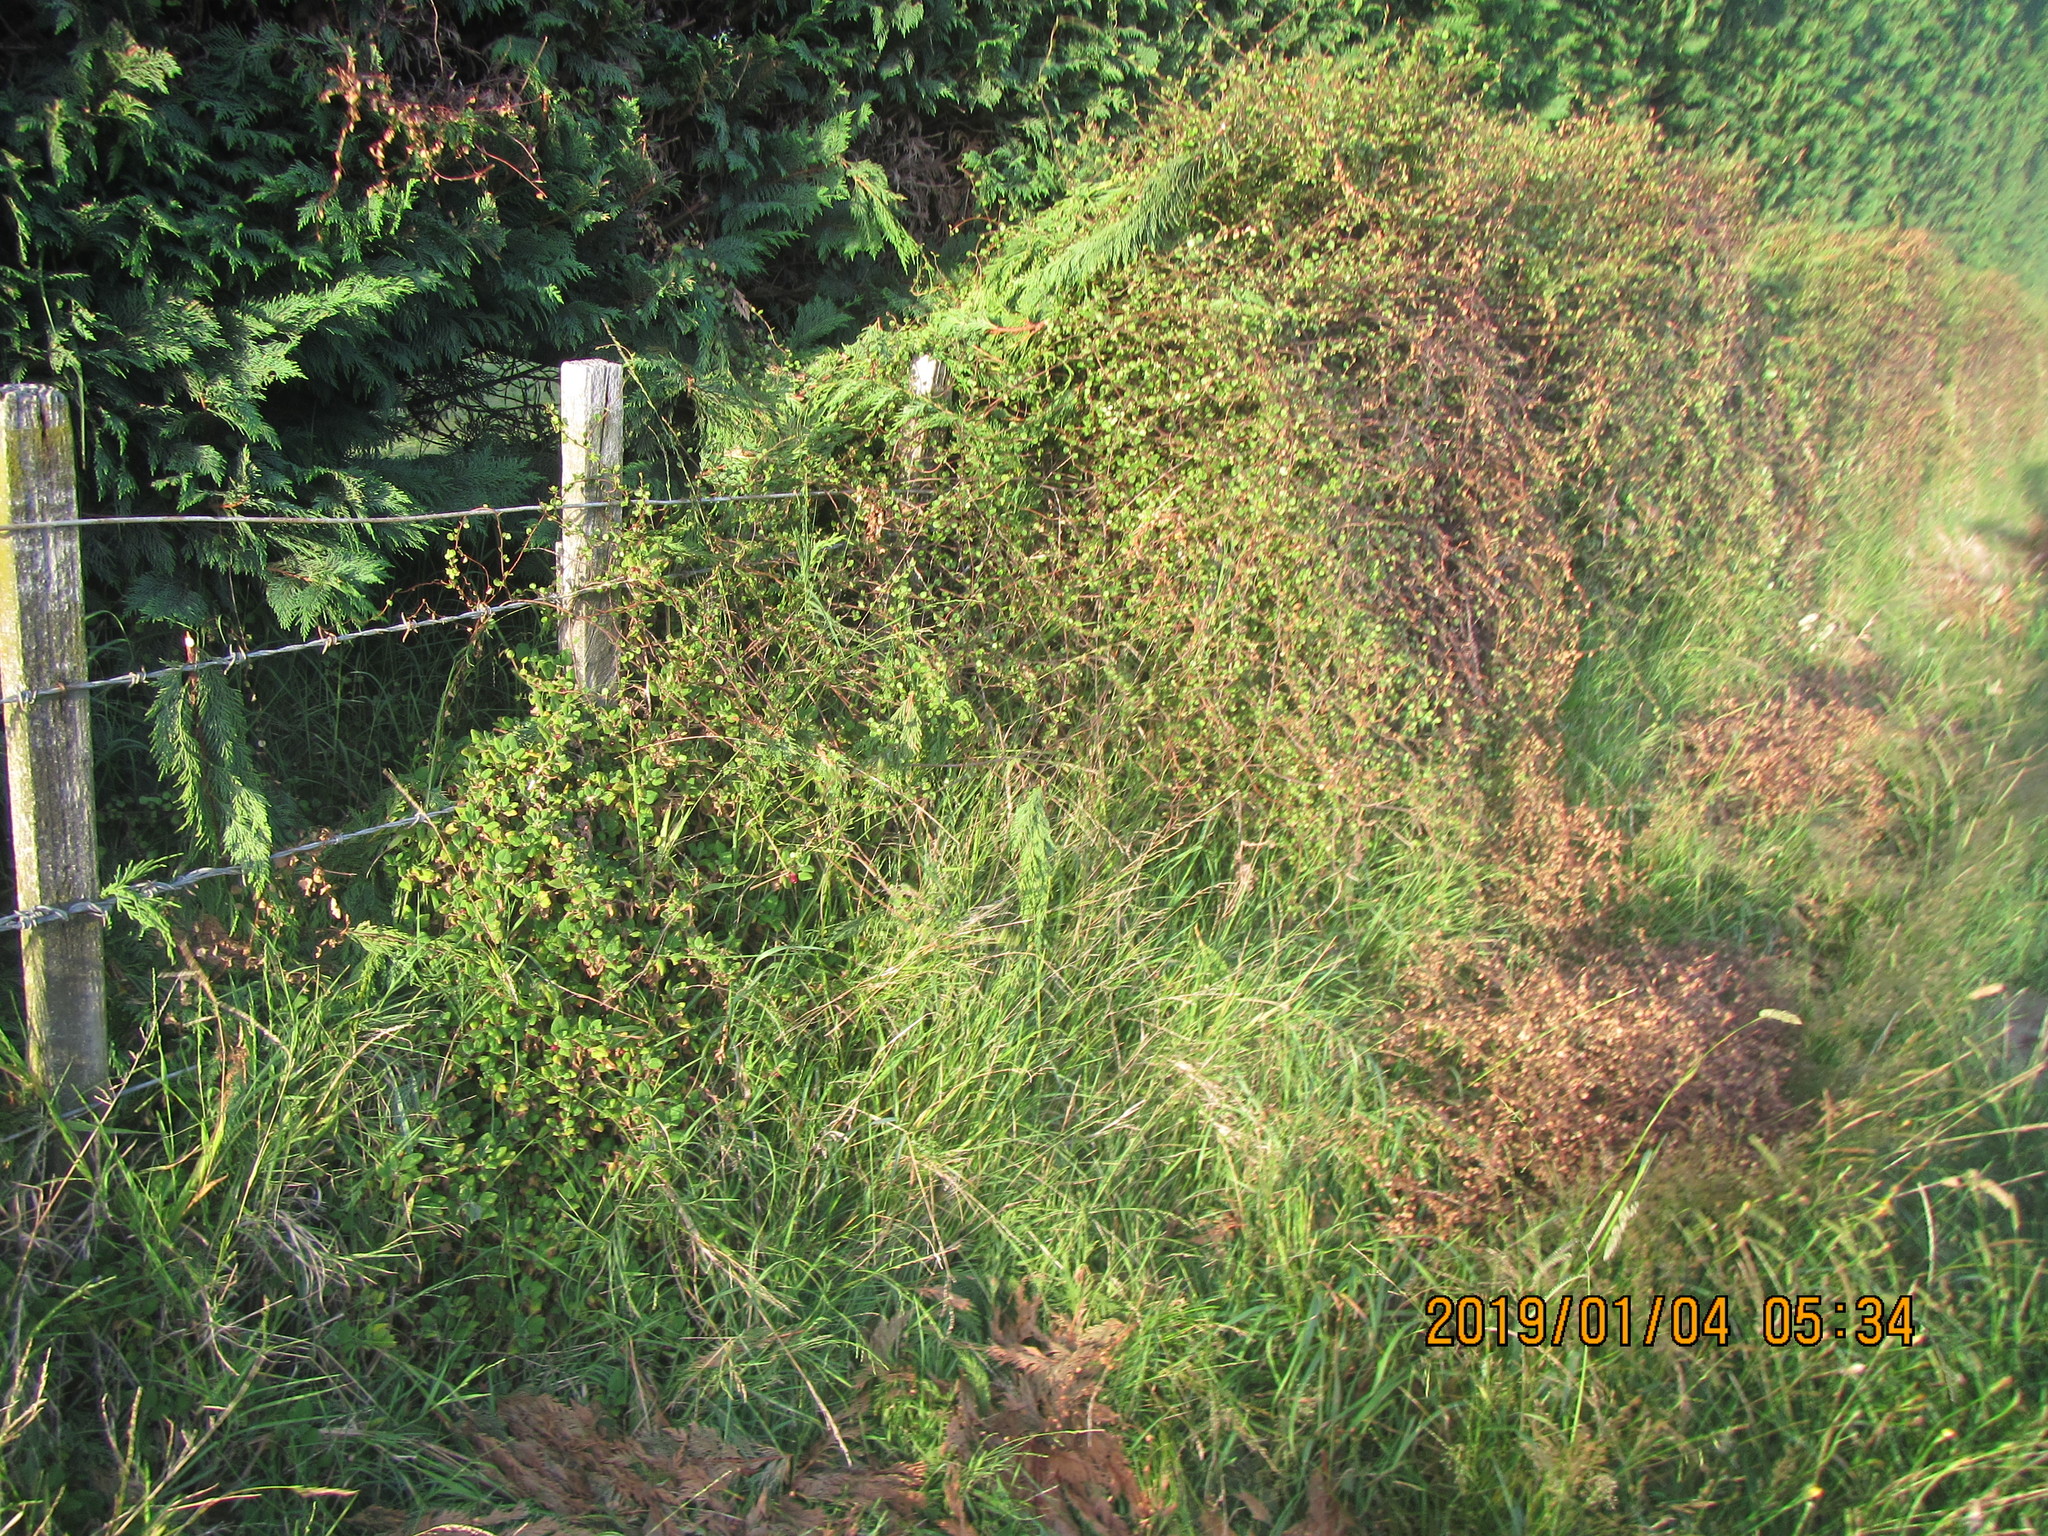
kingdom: Plantae
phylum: Tracheophyta
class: Magnoliopsida
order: Caryophyllales
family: Aizoaceae
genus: Tetragonia
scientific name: Tetragonia implexicoma
